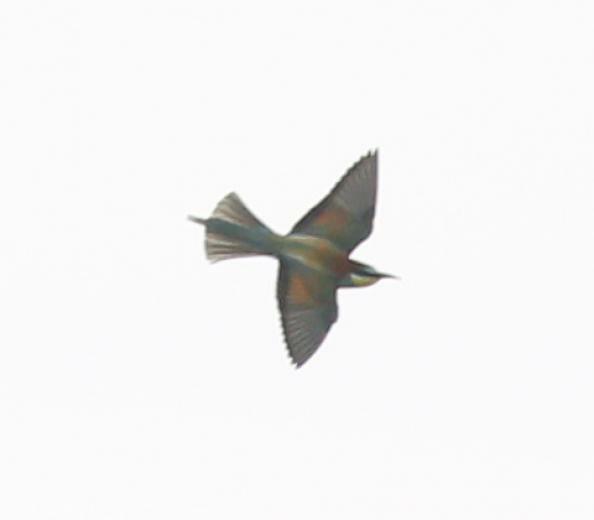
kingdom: Animalia
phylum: Chordata
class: Aves
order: Coraciiformes
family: Meropidae
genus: Merops
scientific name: Merops apiaster
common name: European bee-eater
